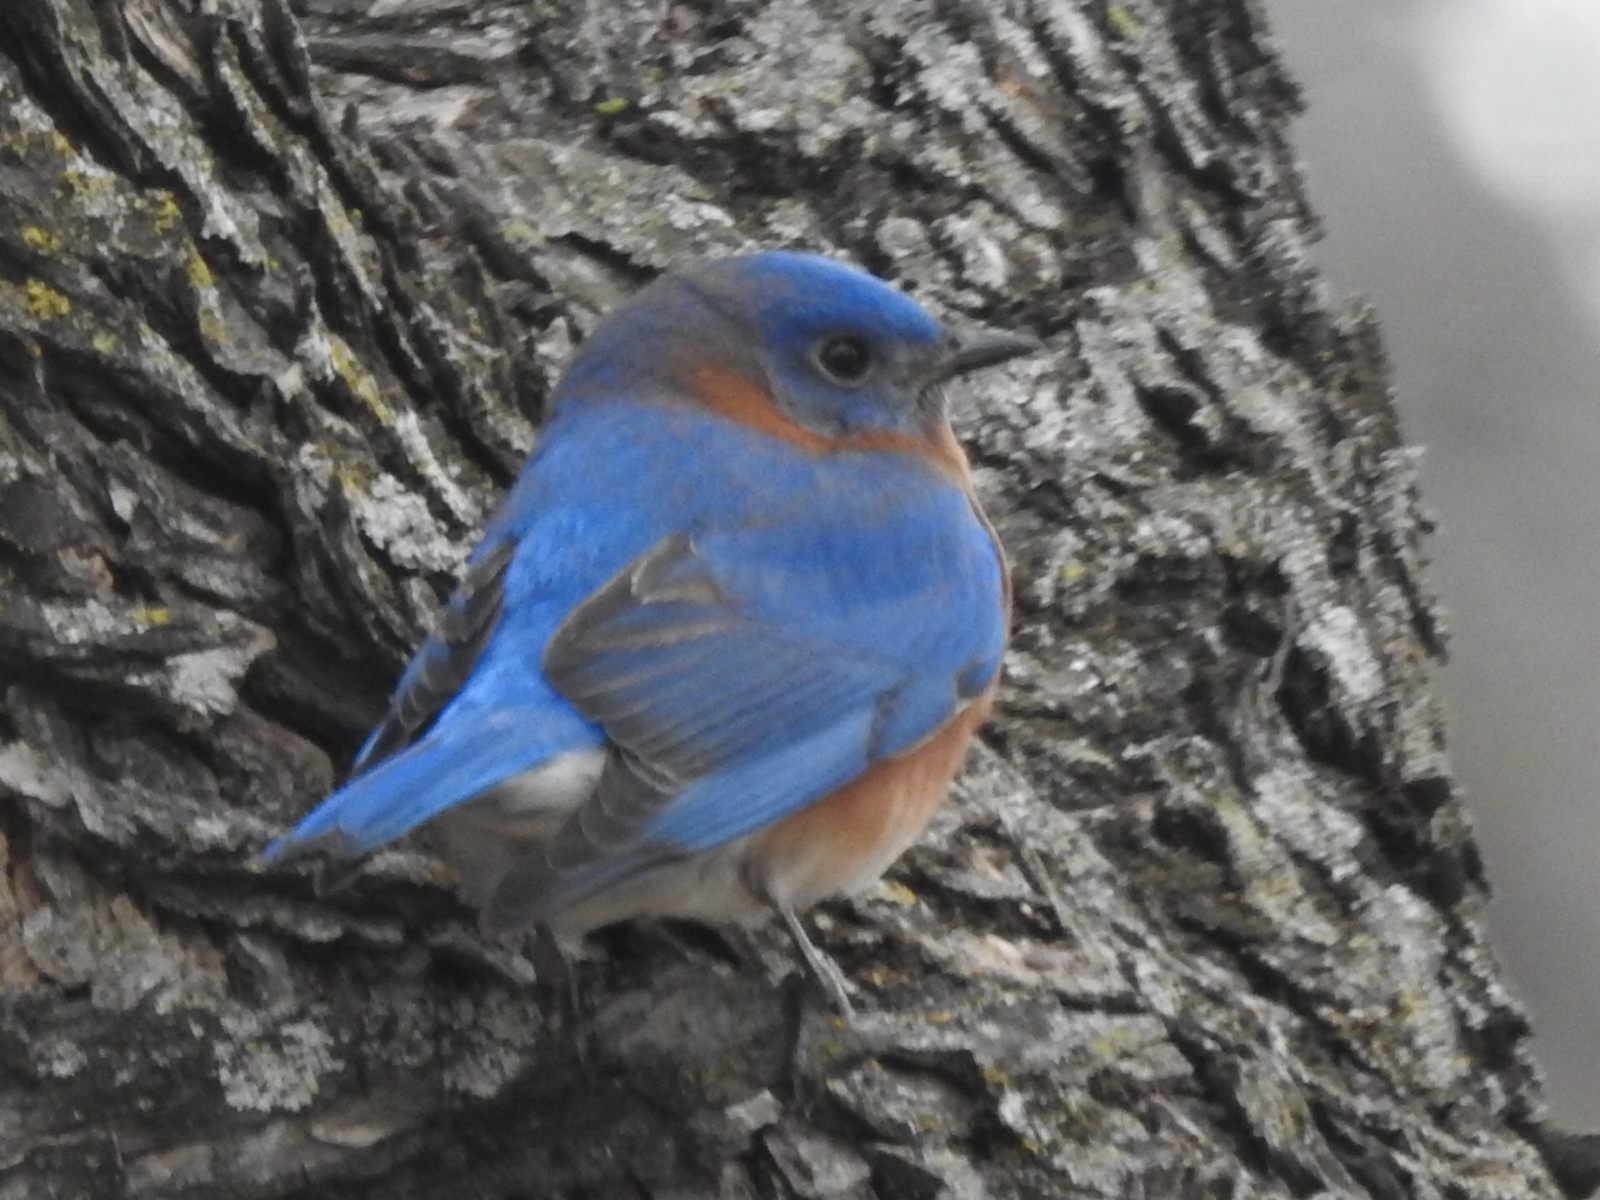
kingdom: Animalia
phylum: Chordata
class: Aves
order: Passeriformes
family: Turdidae
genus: Sialia
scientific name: Sialia sialis
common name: Eastern bluebird
